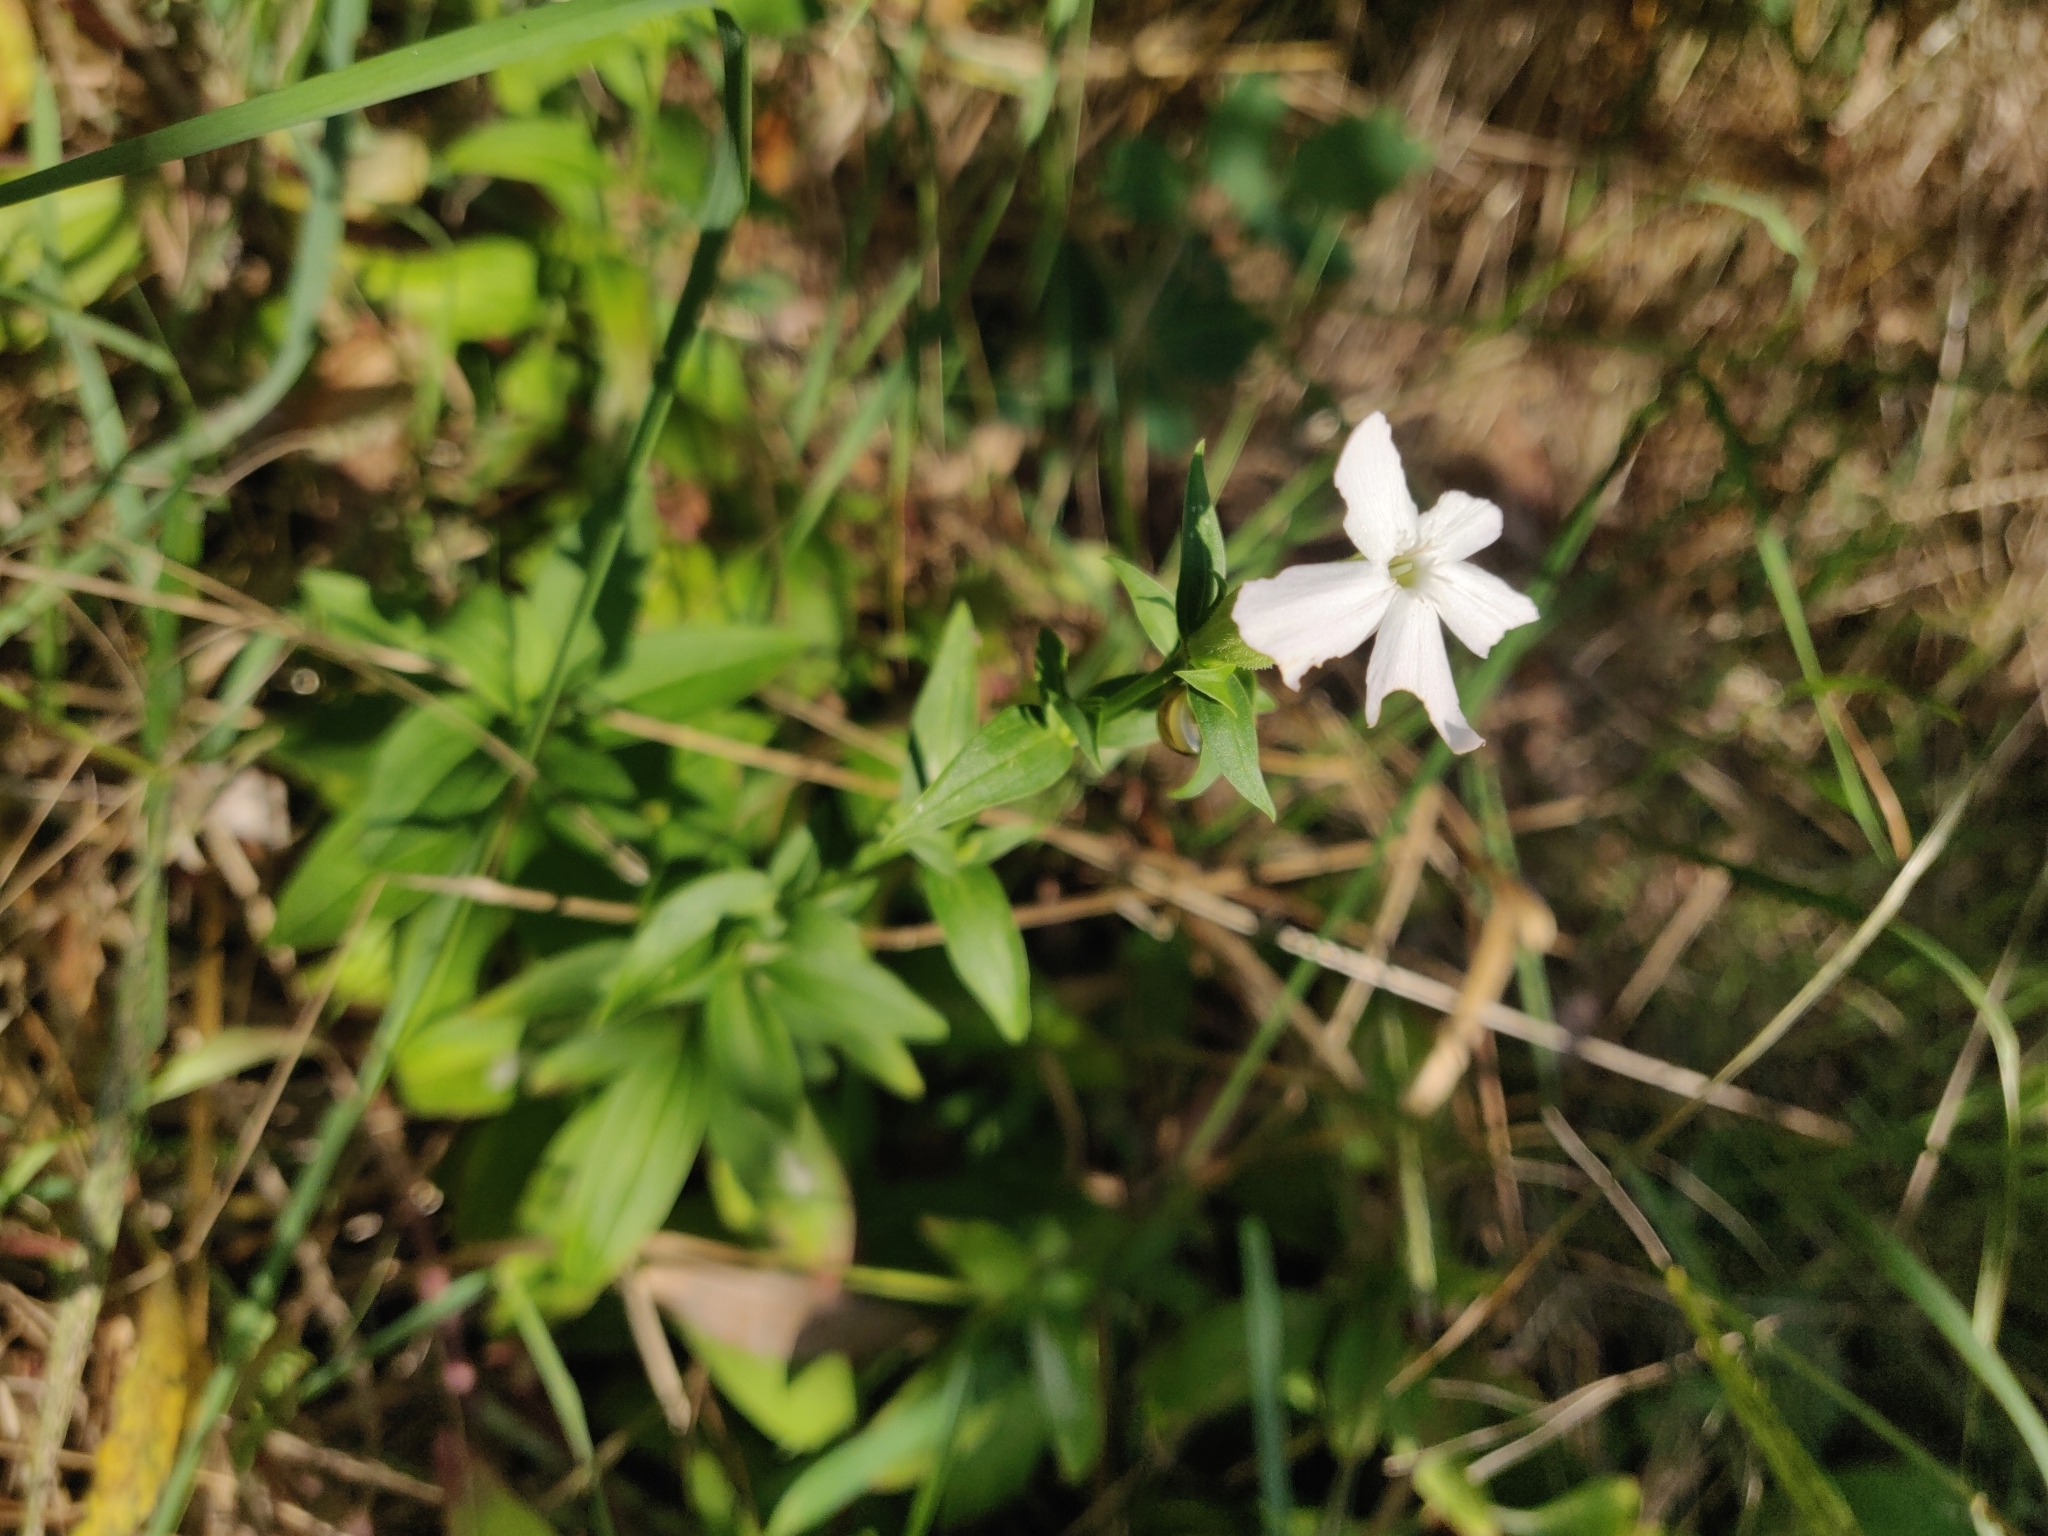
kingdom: Plantae
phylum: Tracheophyta
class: Magnoliopsida
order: Caryophyllales
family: Caryophyllaceae
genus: Saponaria
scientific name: Saponaria officinalis
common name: Soapwort
